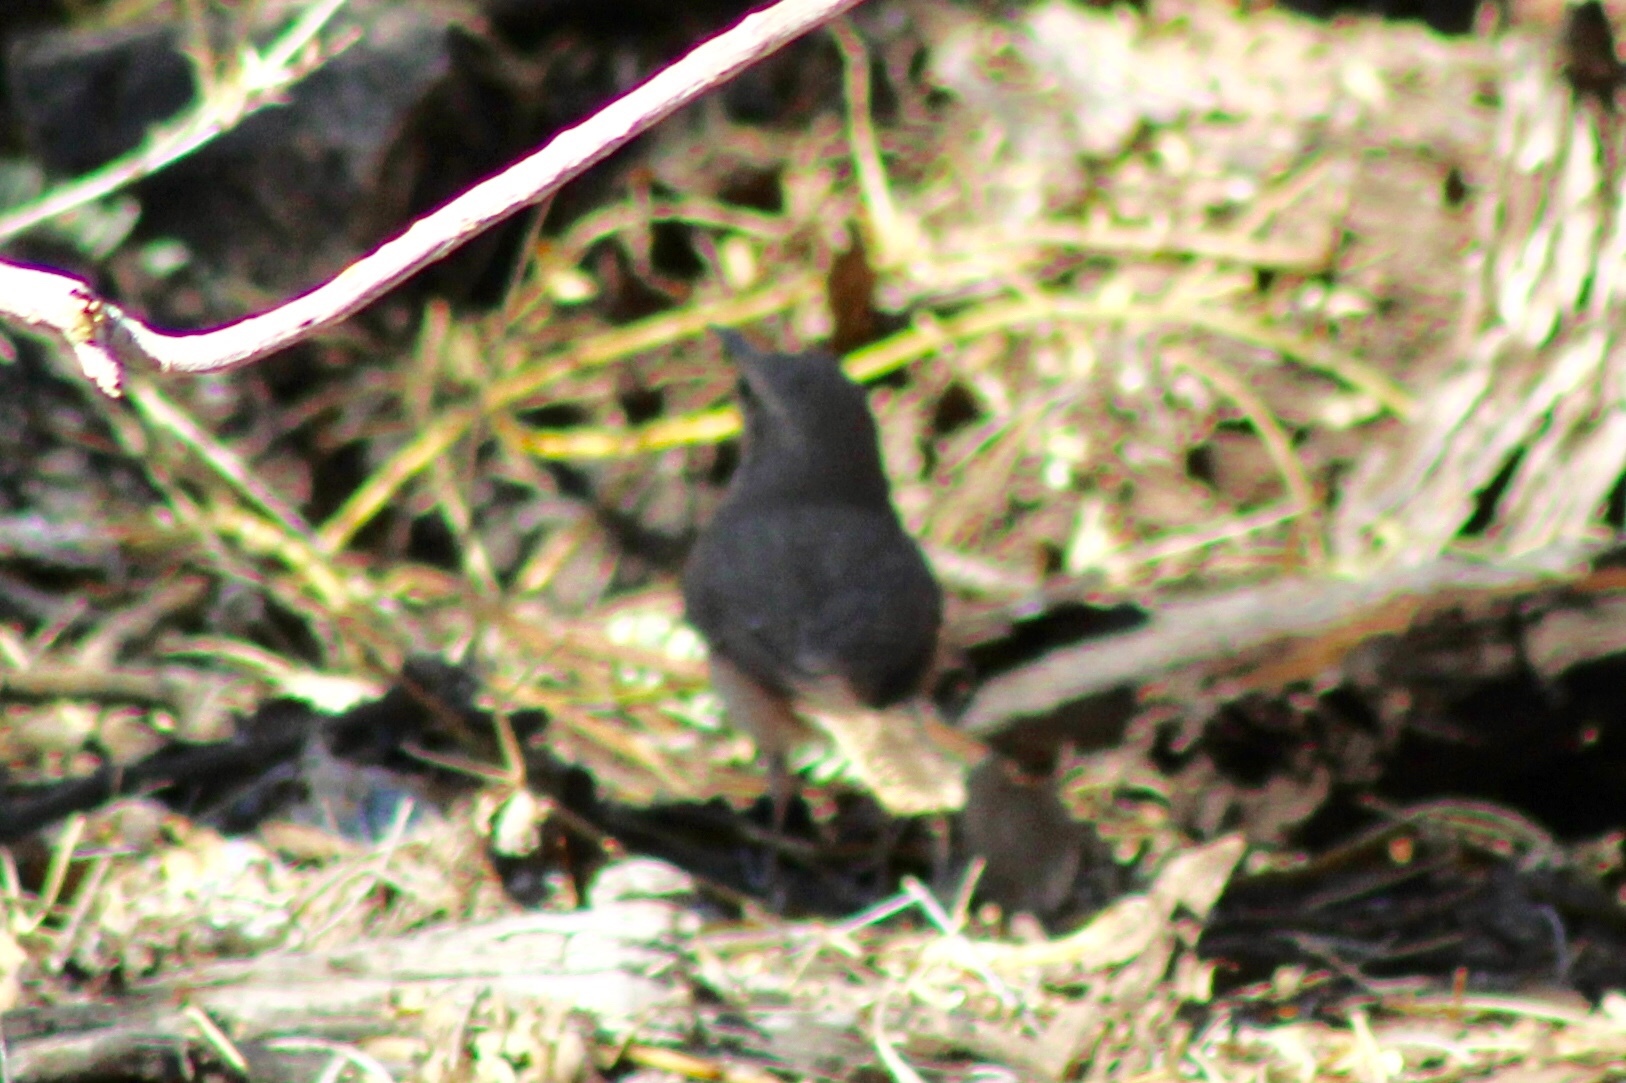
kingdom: Animalia
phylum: Chordata
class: Aves
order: Passeriformes
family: Troglodytidae
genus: Salpinctes
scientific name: Salpinctes obsoletus
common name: Rock wren
